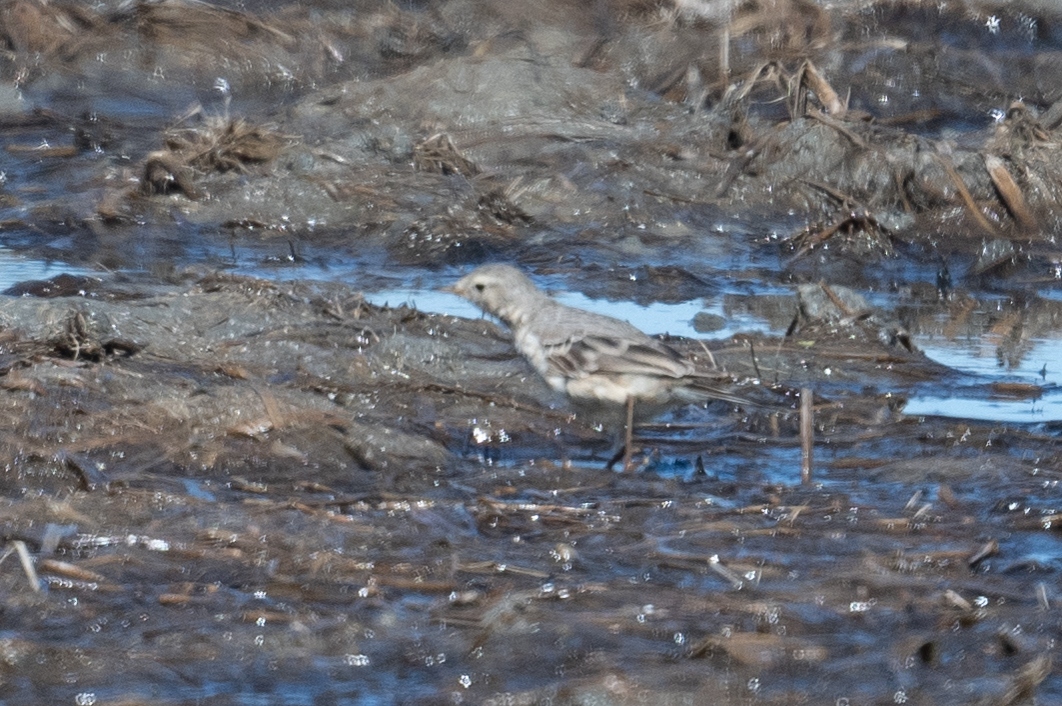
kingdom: Animalia
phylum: Chordata
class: Aves
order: Passeriformes
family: Motacillidae
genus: Anthus
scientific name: Anthus rubescens
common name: Buff-bellied pipit
